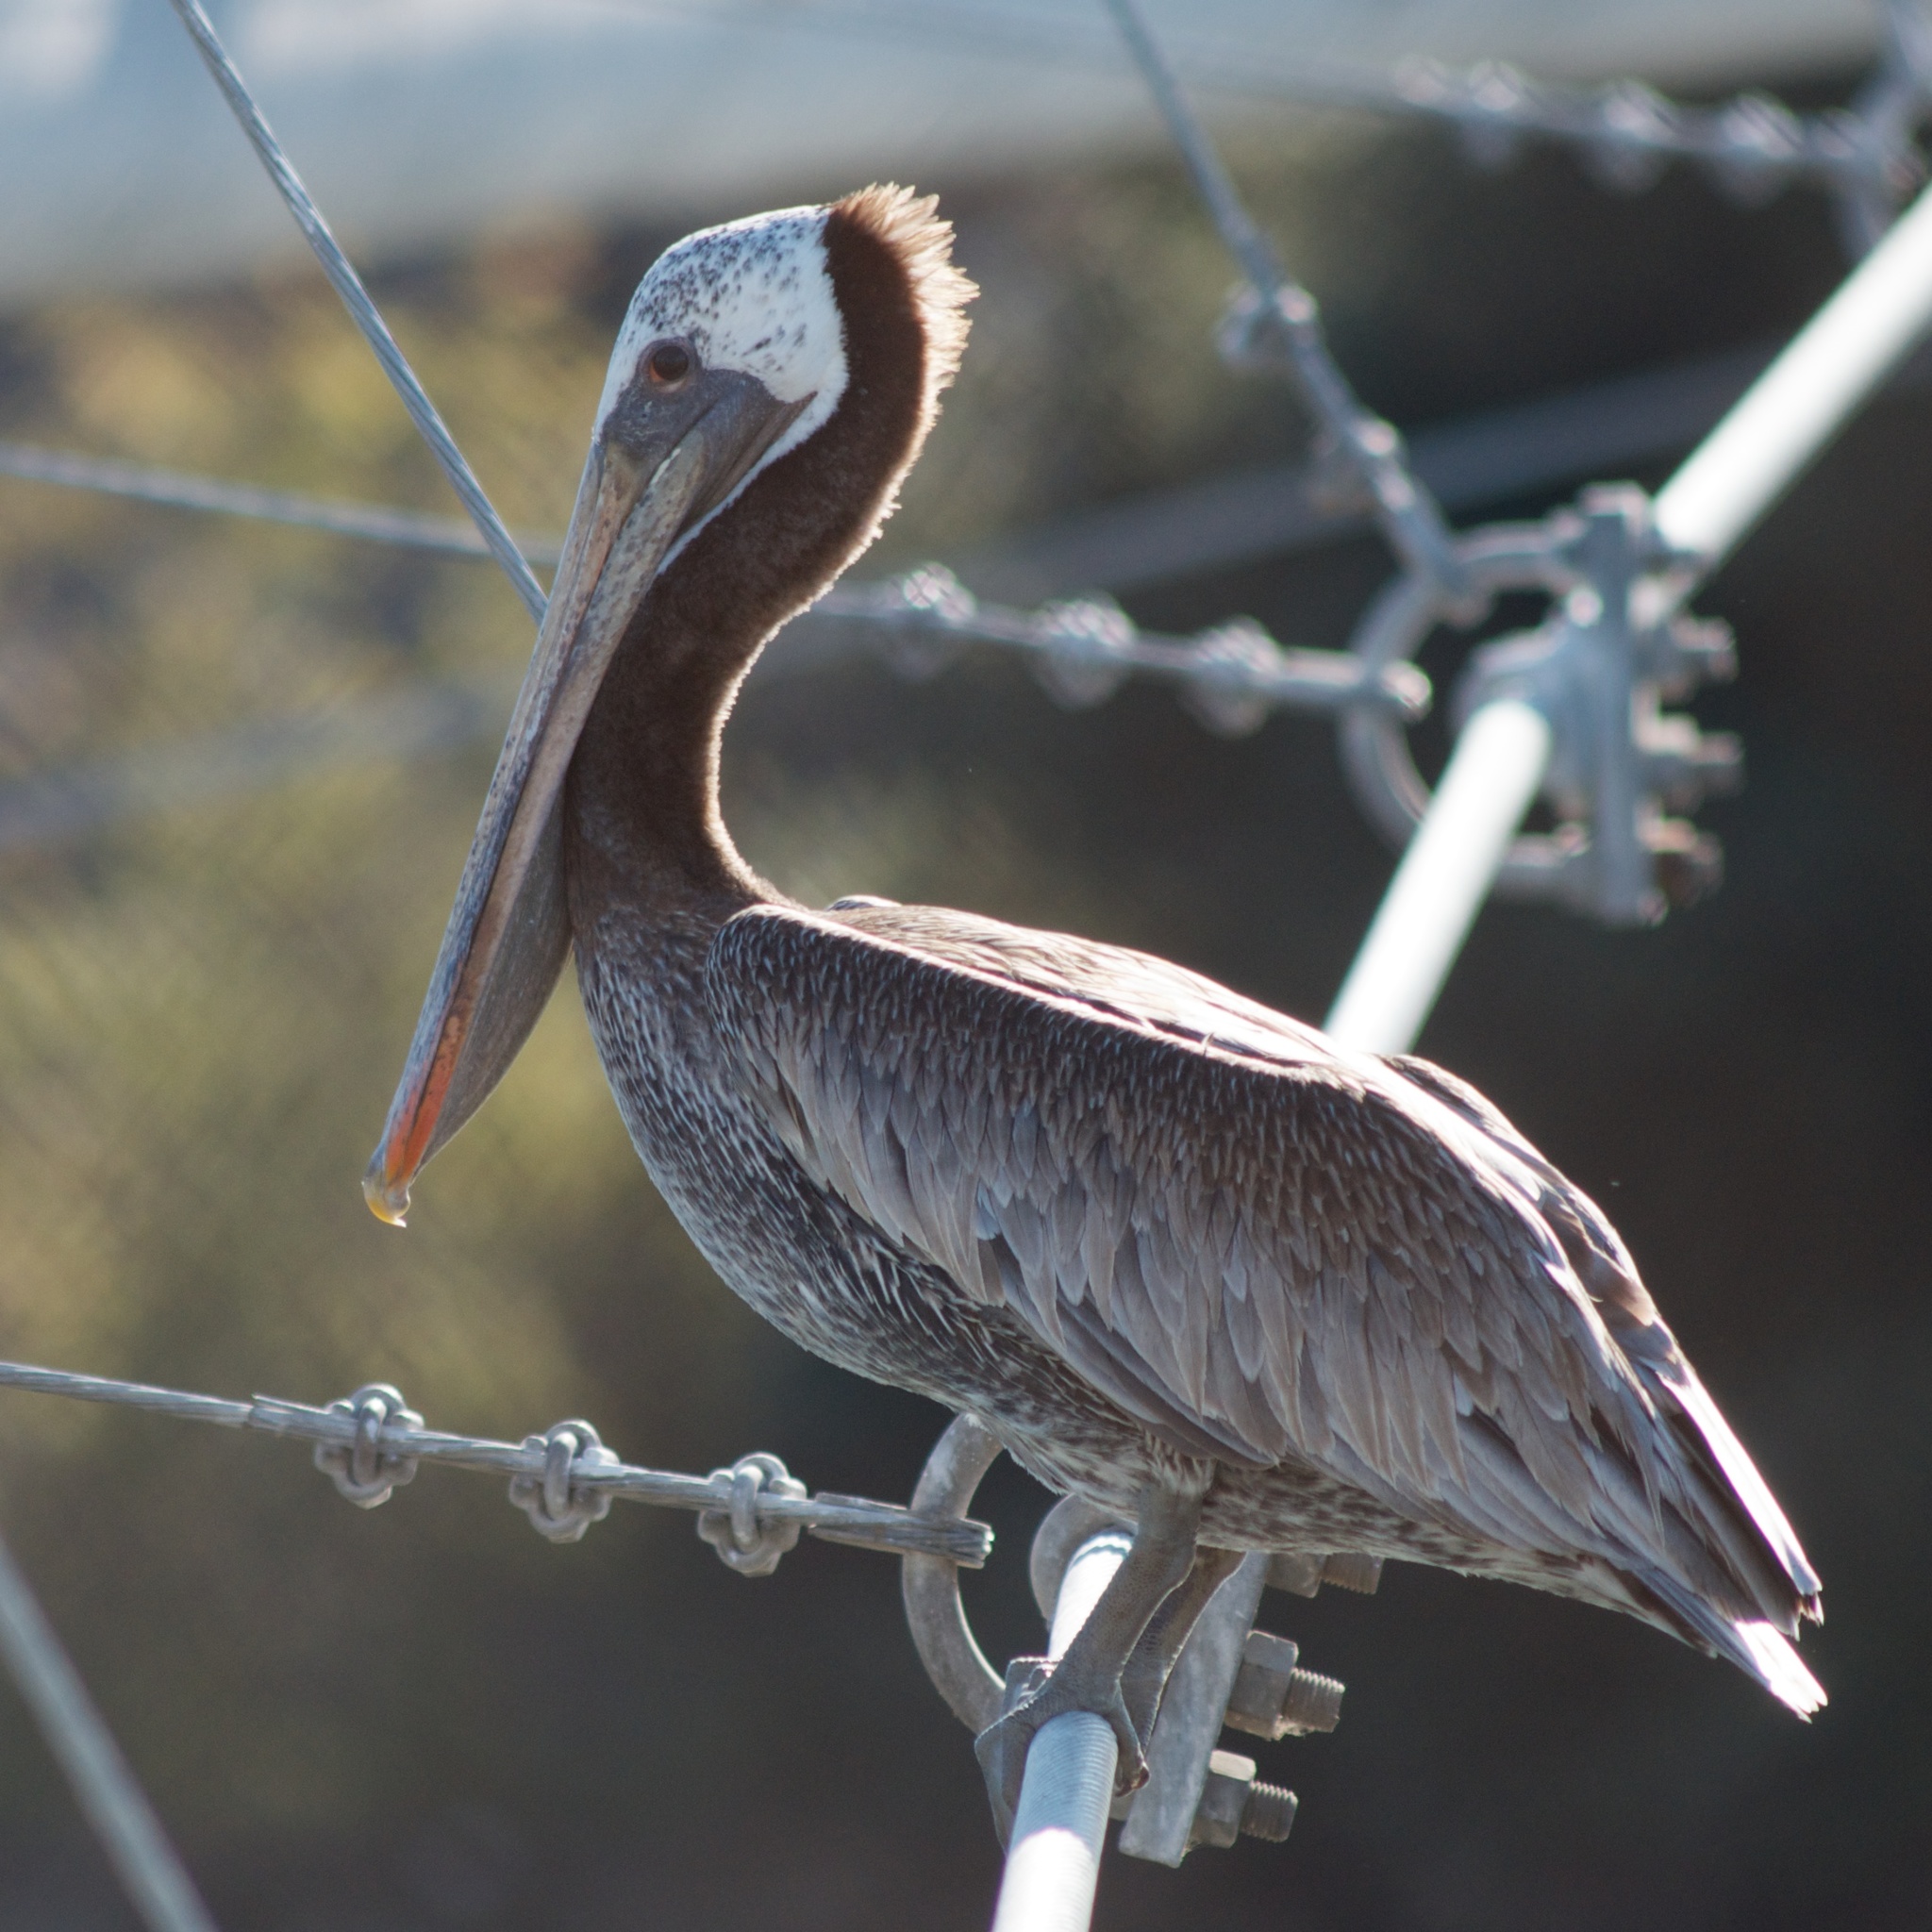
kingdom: Animalia
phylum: Chordata
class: Aves
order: Pelecaniformes
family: Pelecanidae
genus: Pelecanus
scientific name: Pelecanus occidentalis
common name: Brown pelican
